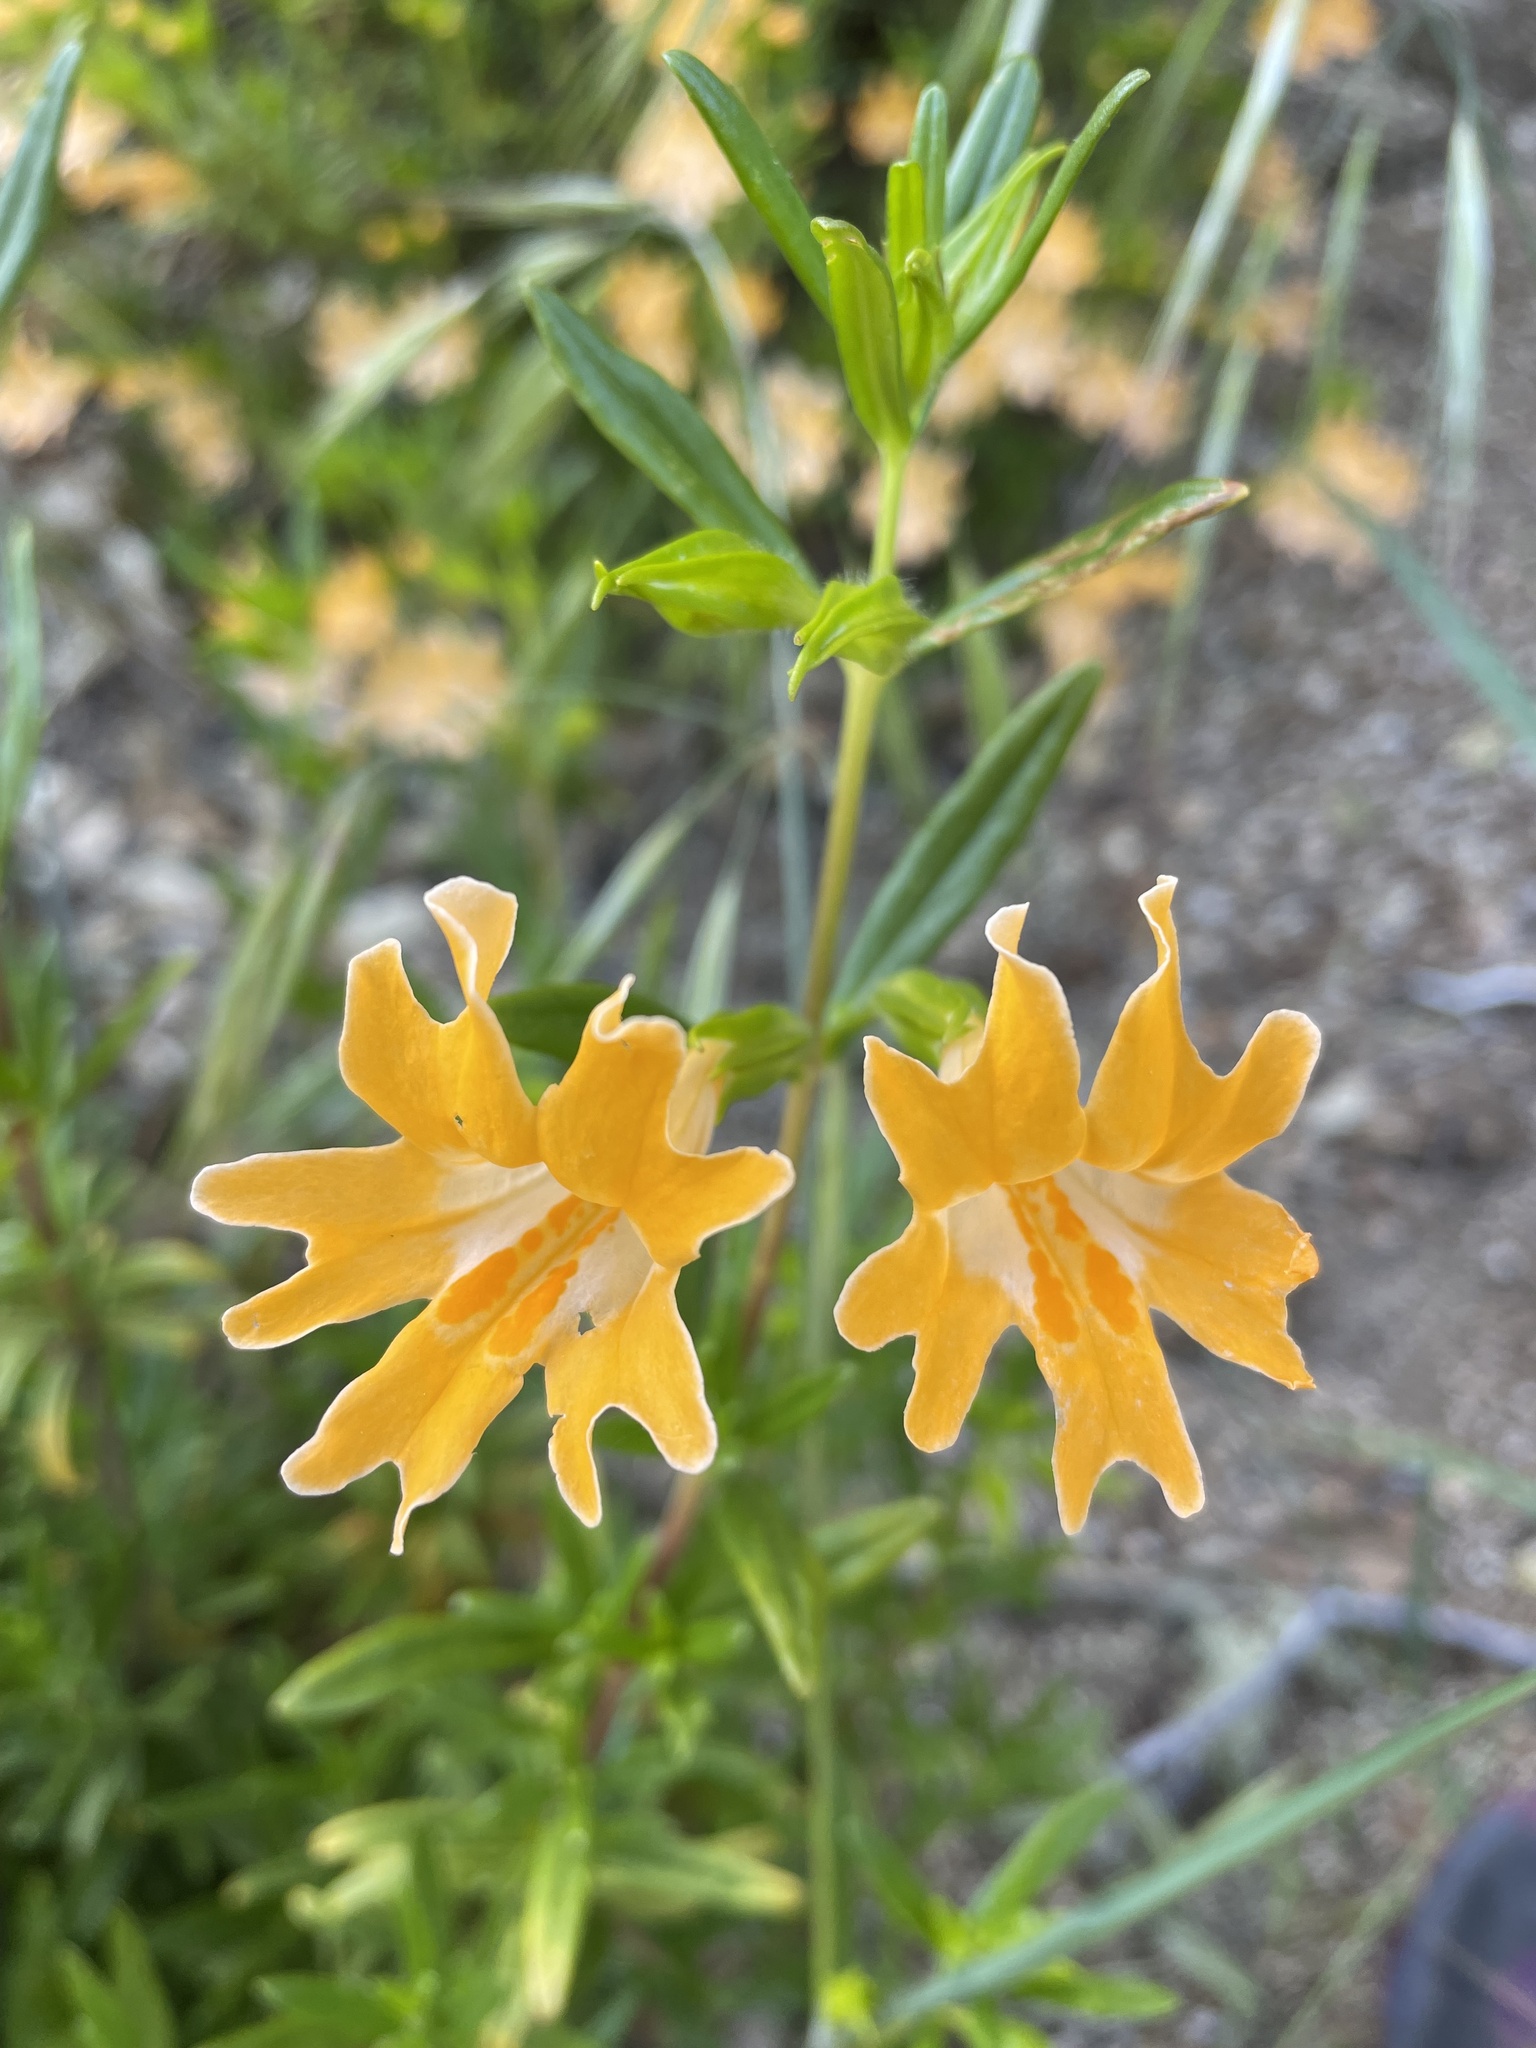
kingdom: Plantae
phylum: Tracheophyta
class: Magnoliopsida
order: Lamiales
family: Phrymaceae
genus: Diplacus
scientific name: Diplacus linearis
